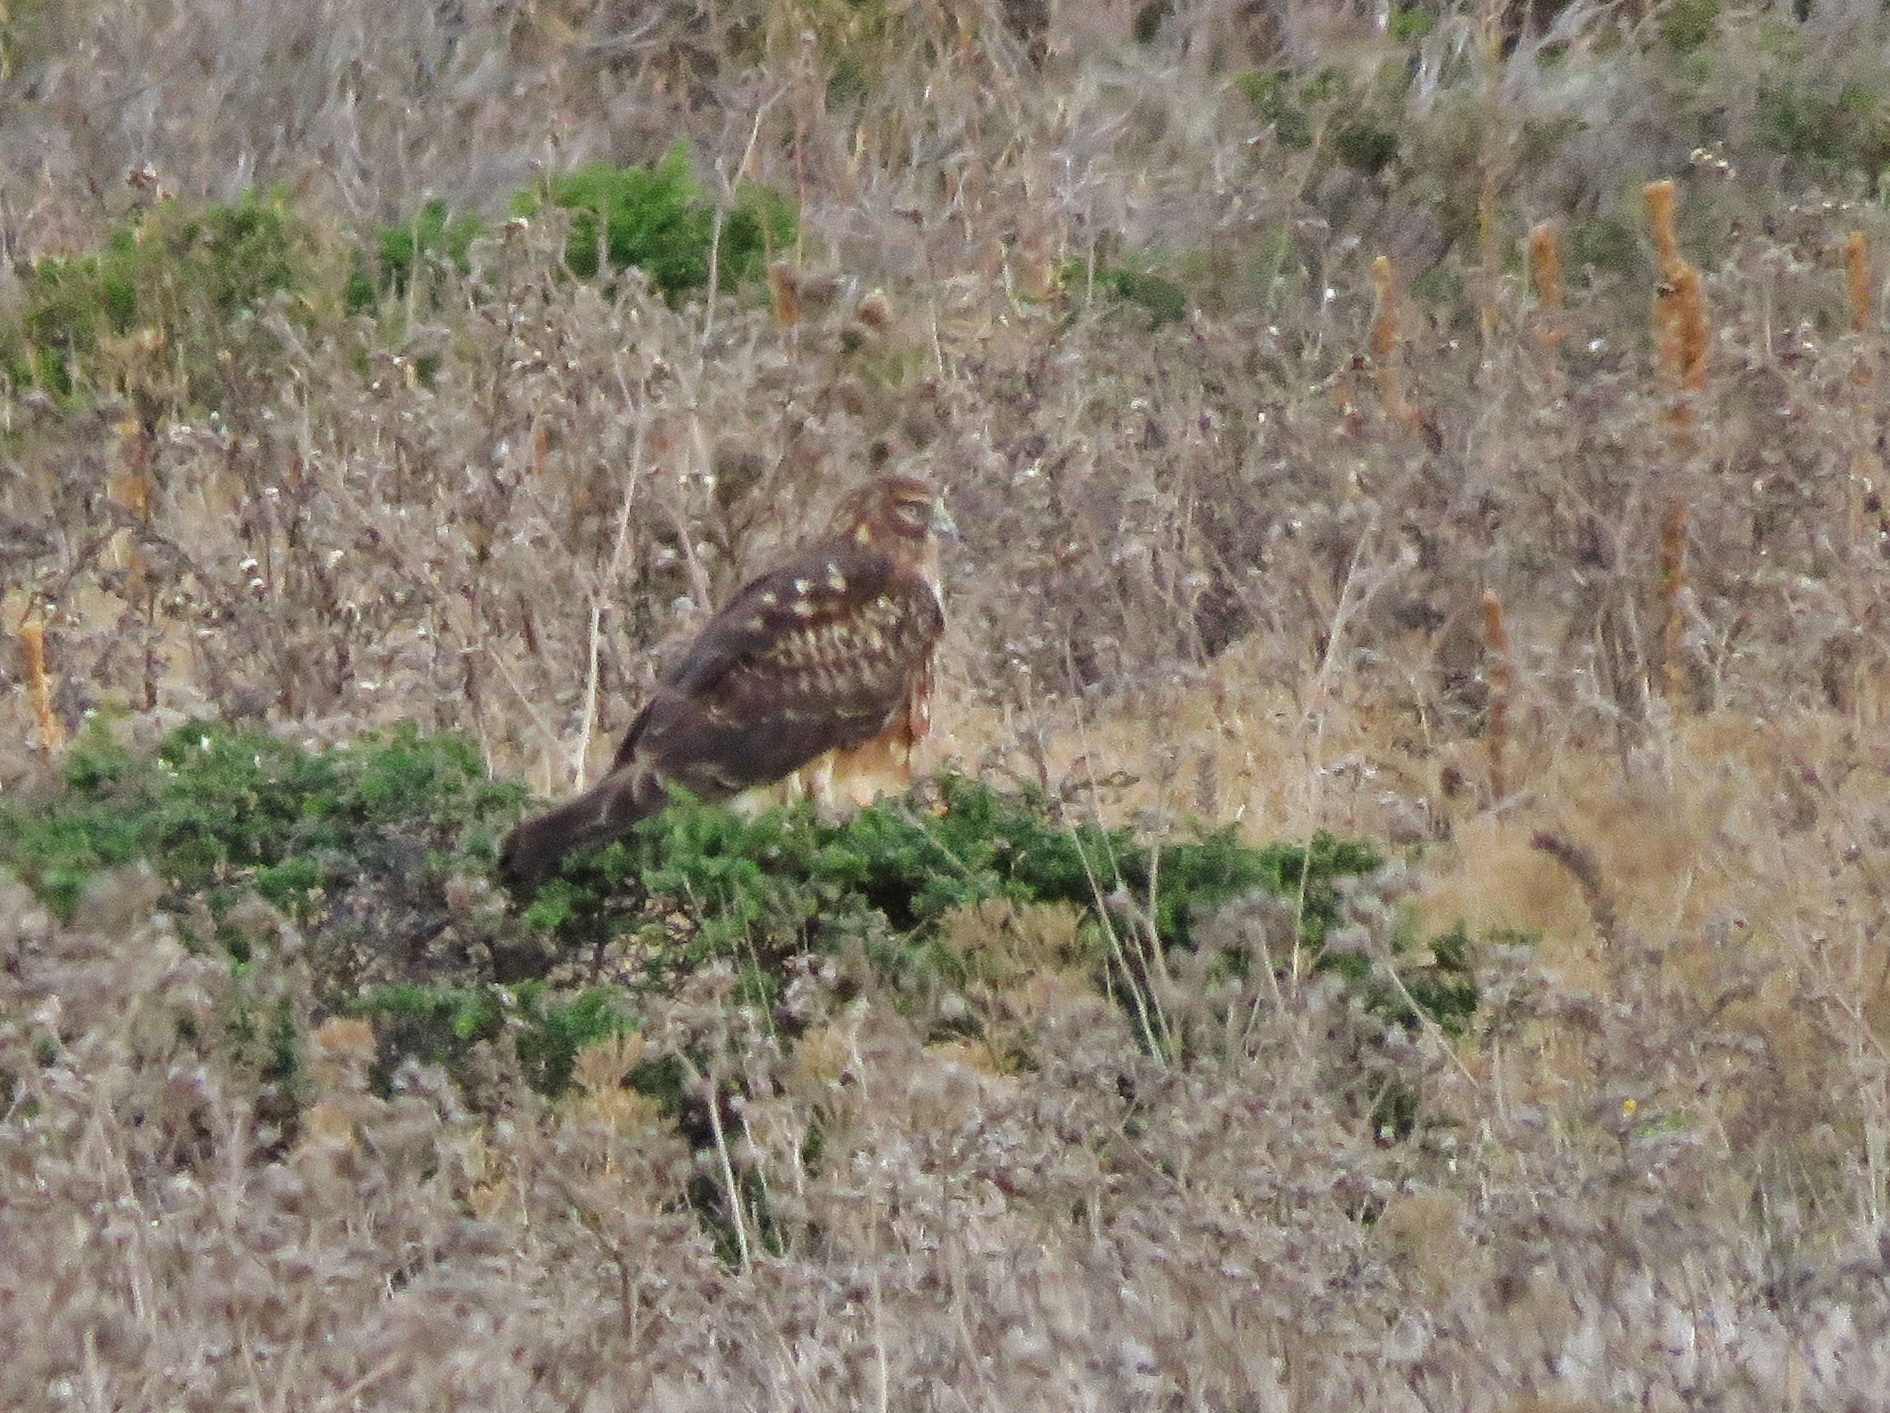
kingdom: Animalia
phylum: Chordata
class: Aves
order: Accipitriformes
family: Accipitridae
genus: Circus
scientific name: Circus cyaneus
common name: Hen harrier
